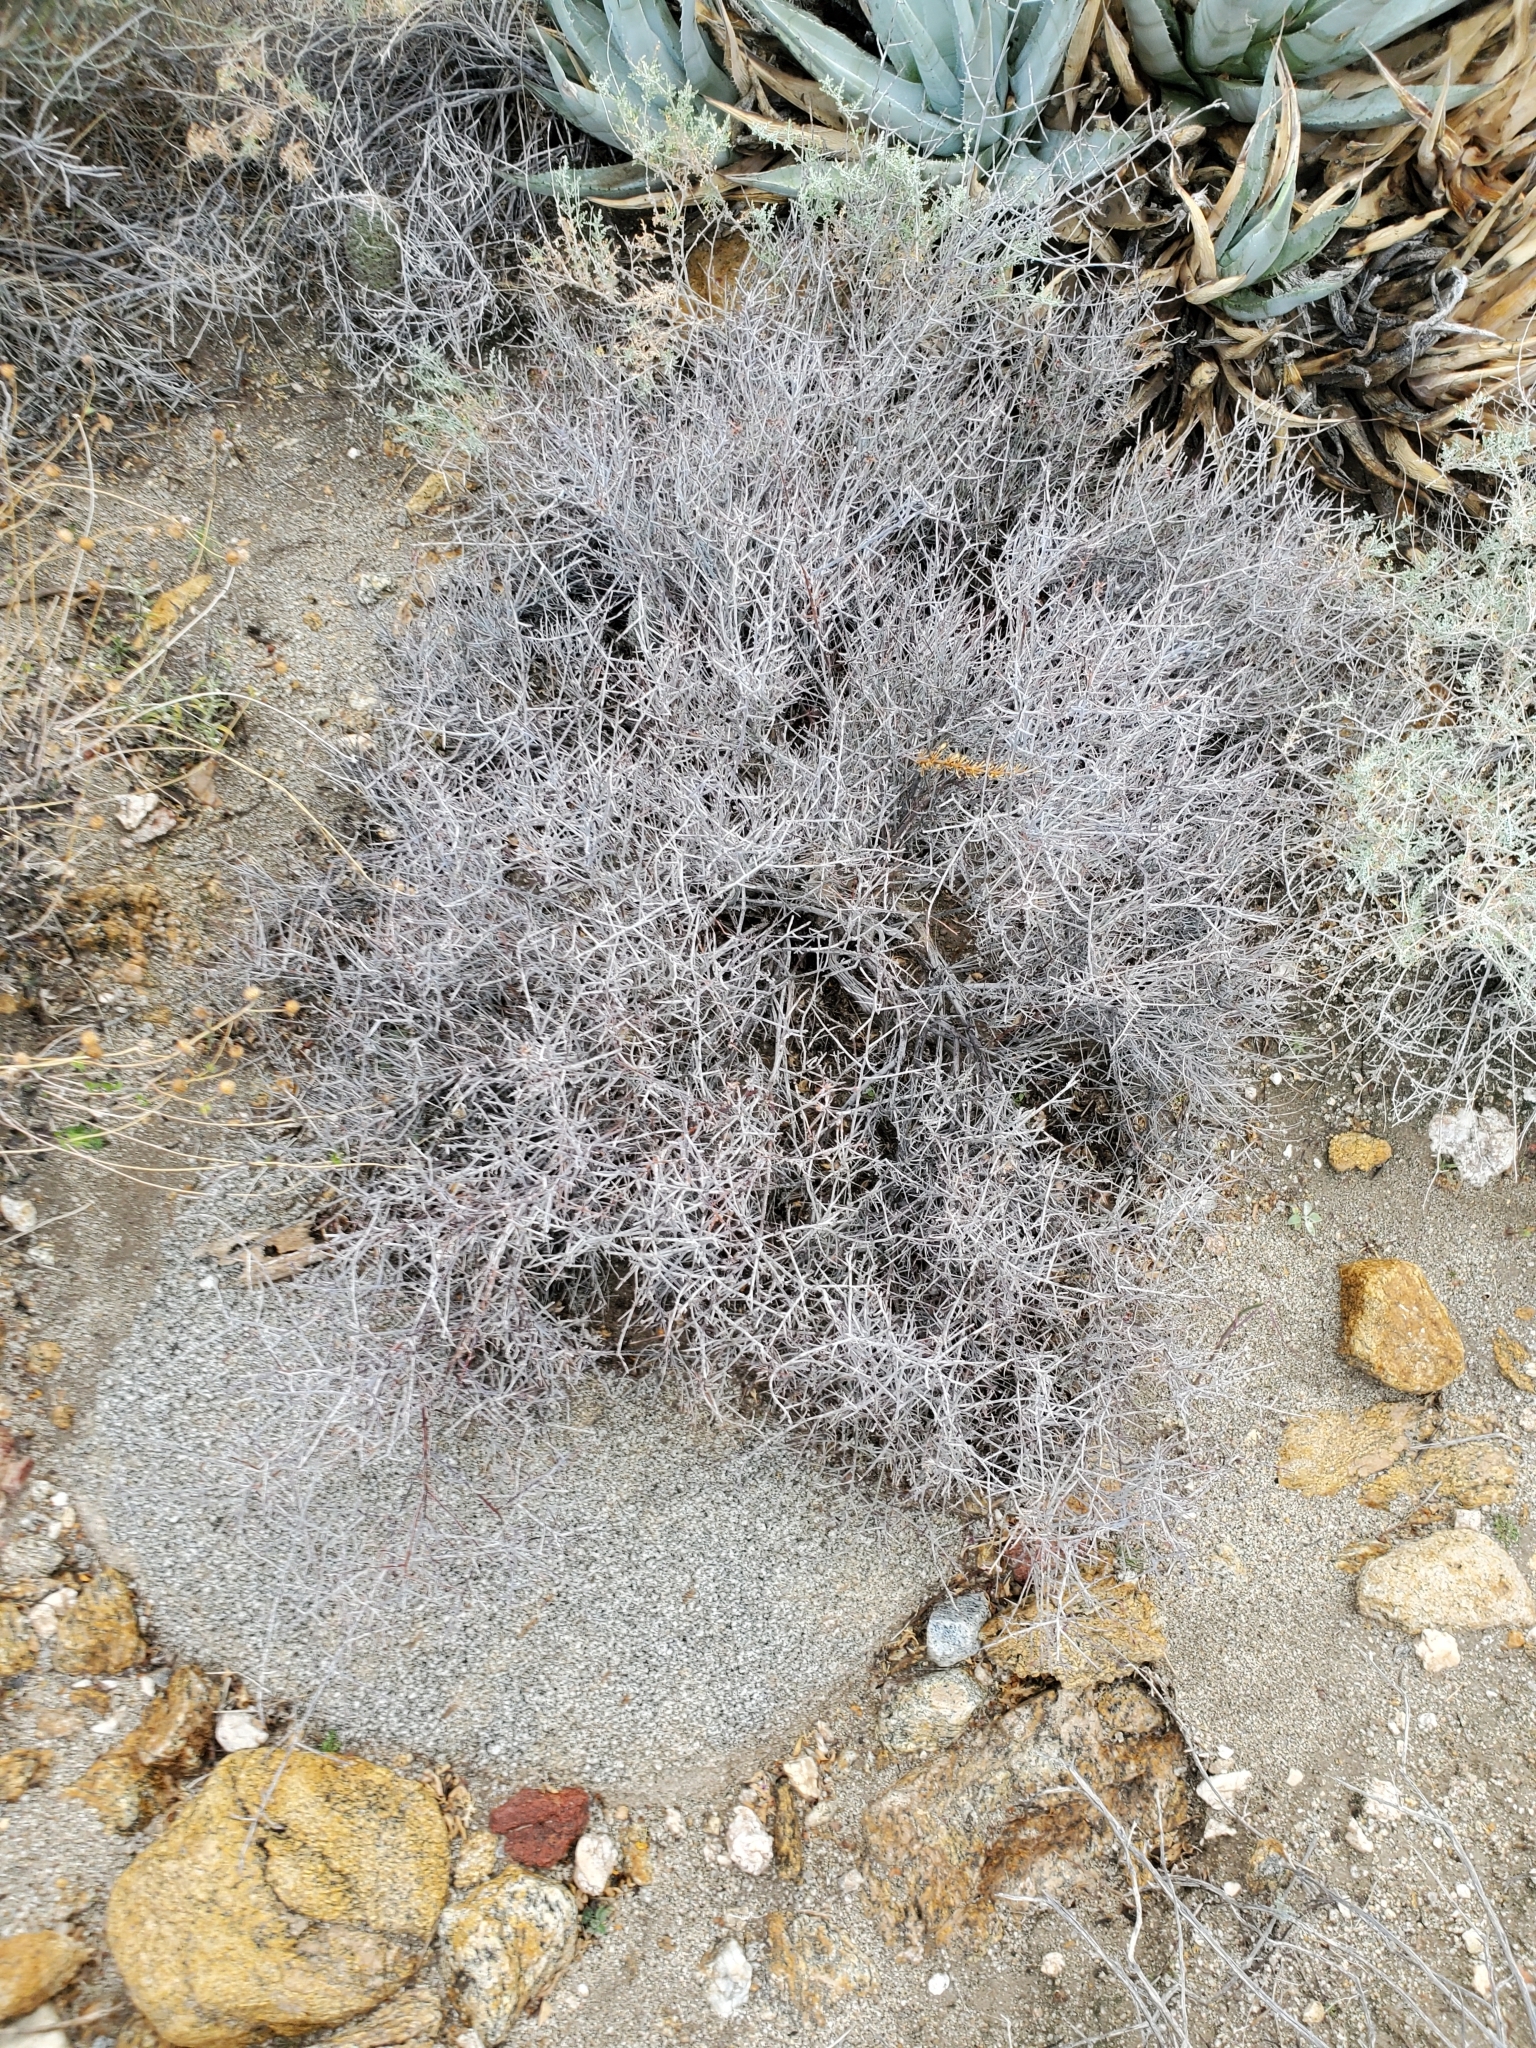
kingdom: Plantae
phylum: Tracheophyta
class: Magnoliopsida
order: Zygophyllales
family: Krameriaceae
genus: Krameria
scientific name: Krameria bicolor
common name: White ratany
